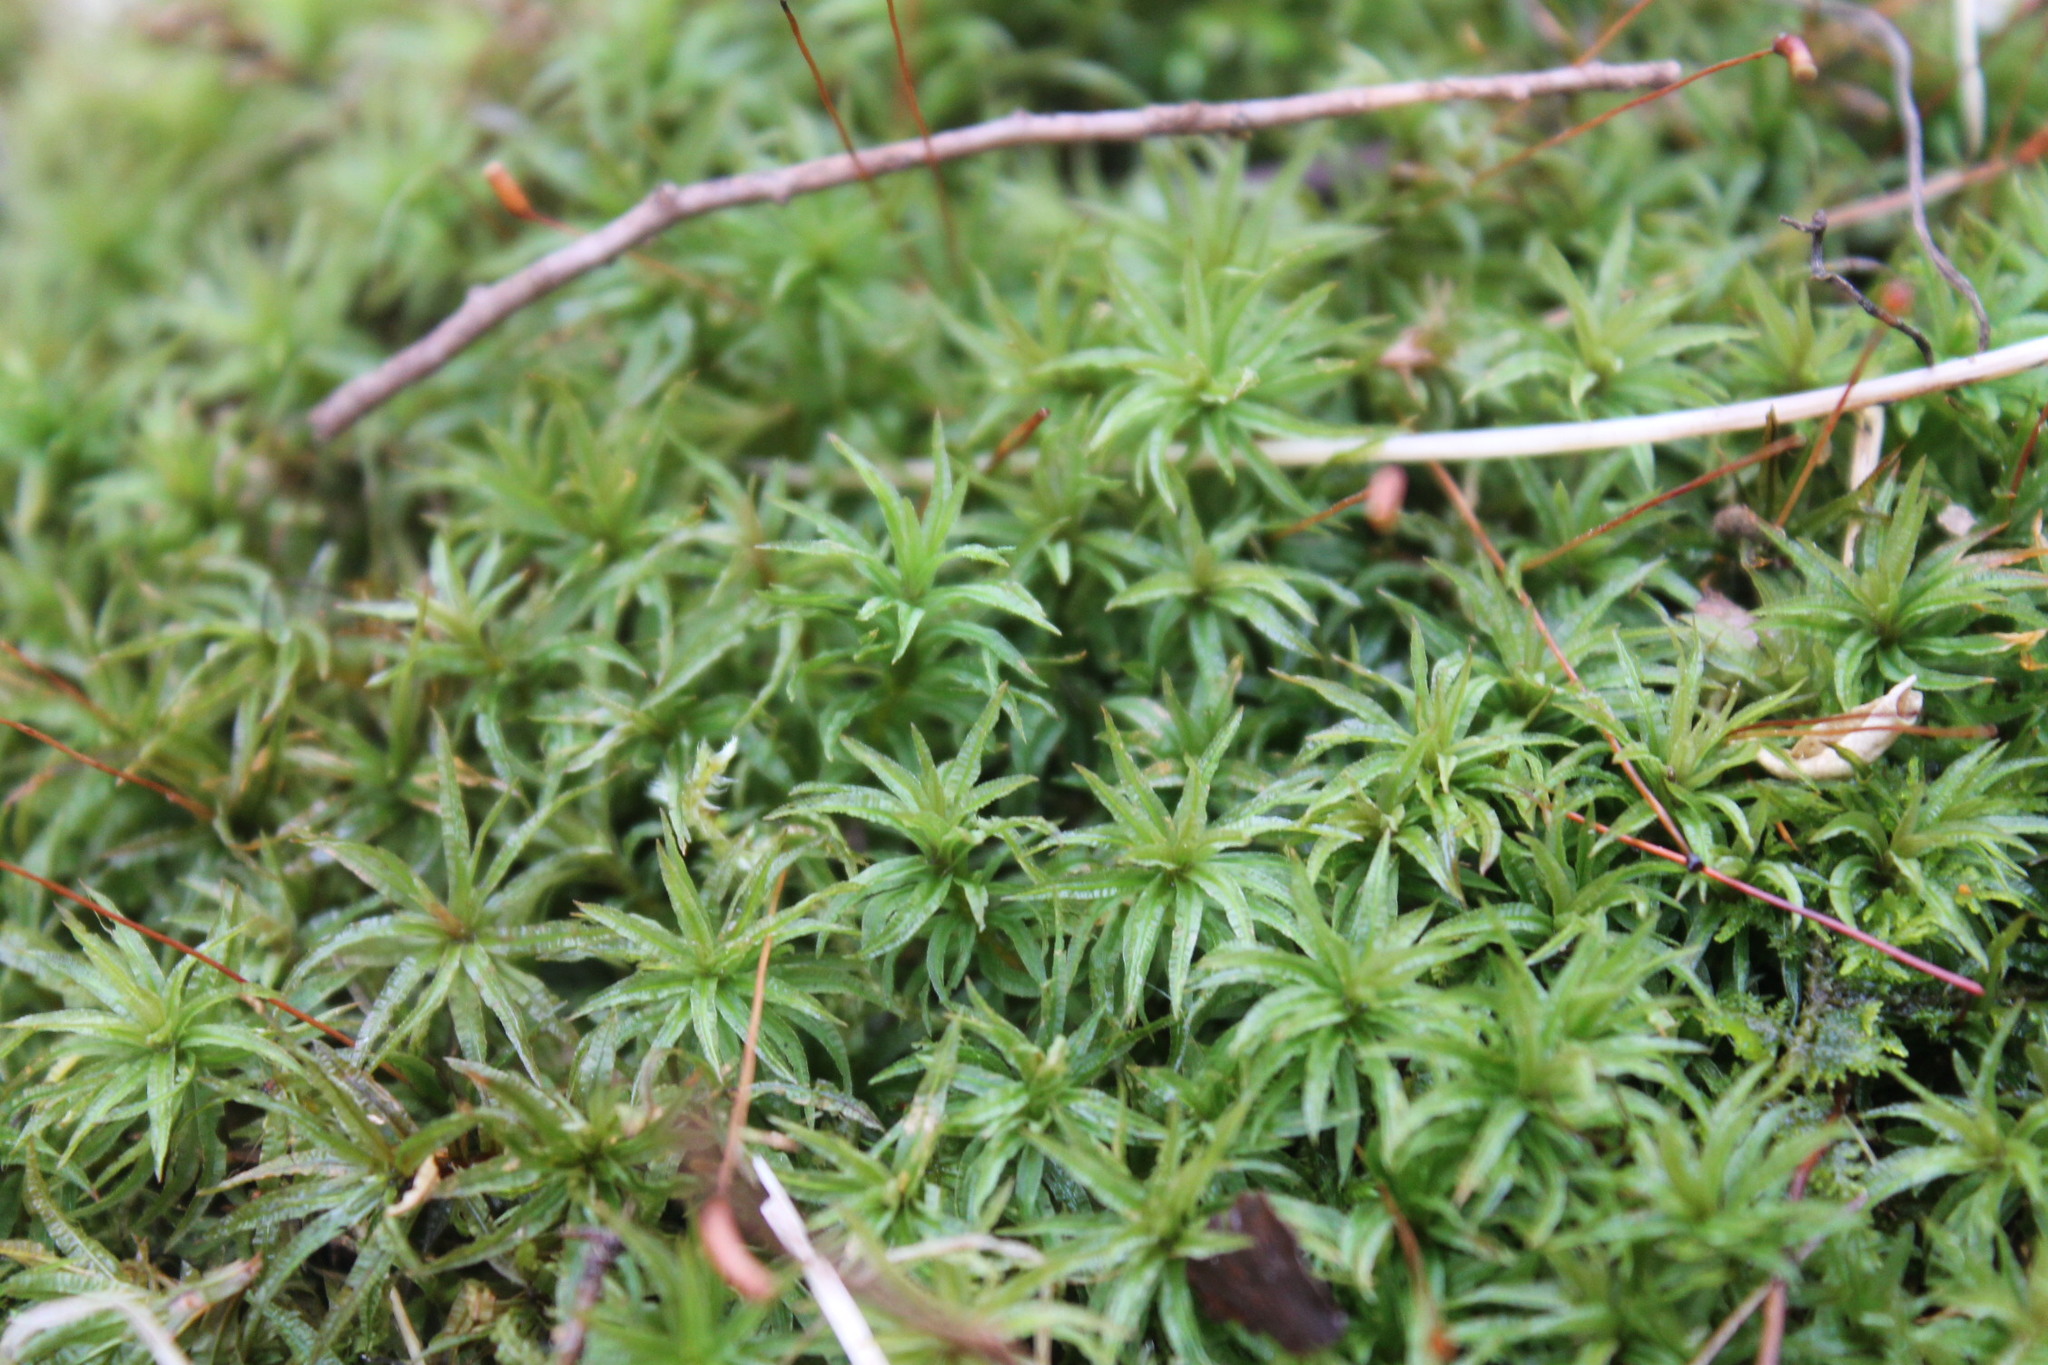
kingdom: Plantae
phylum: Bryophyta
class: Polytrichopsida
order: Polytrichales
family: Polytrichaceae
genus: Atrichum
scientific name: Atrichum undulatum
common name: Common smoothcap
